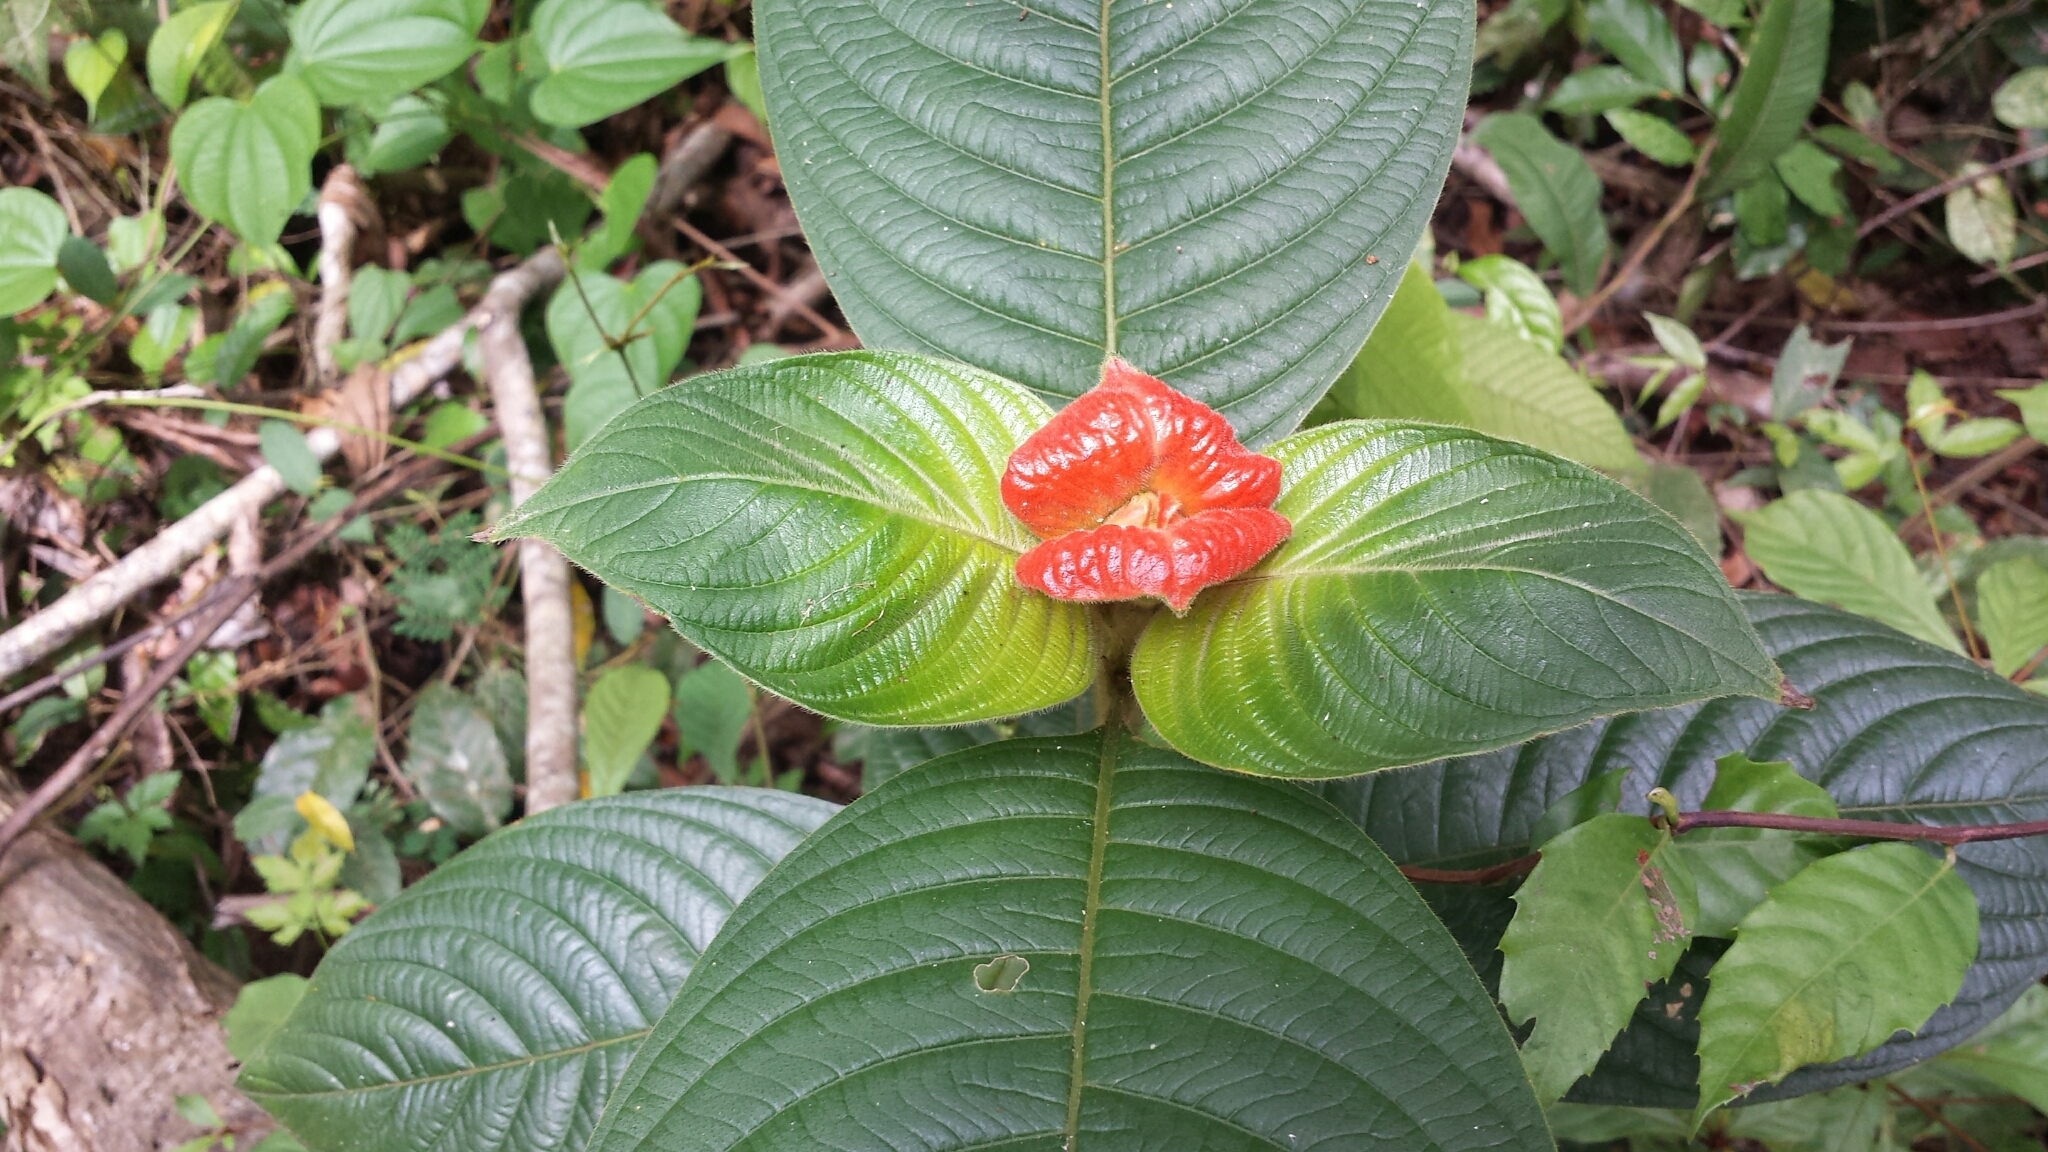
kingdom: Plantae
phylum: Tracheophyta
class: Magnoliopsida
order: Gentianales
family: Rubiaceae
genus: Palicourea
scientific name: Palicourea tomentosa
